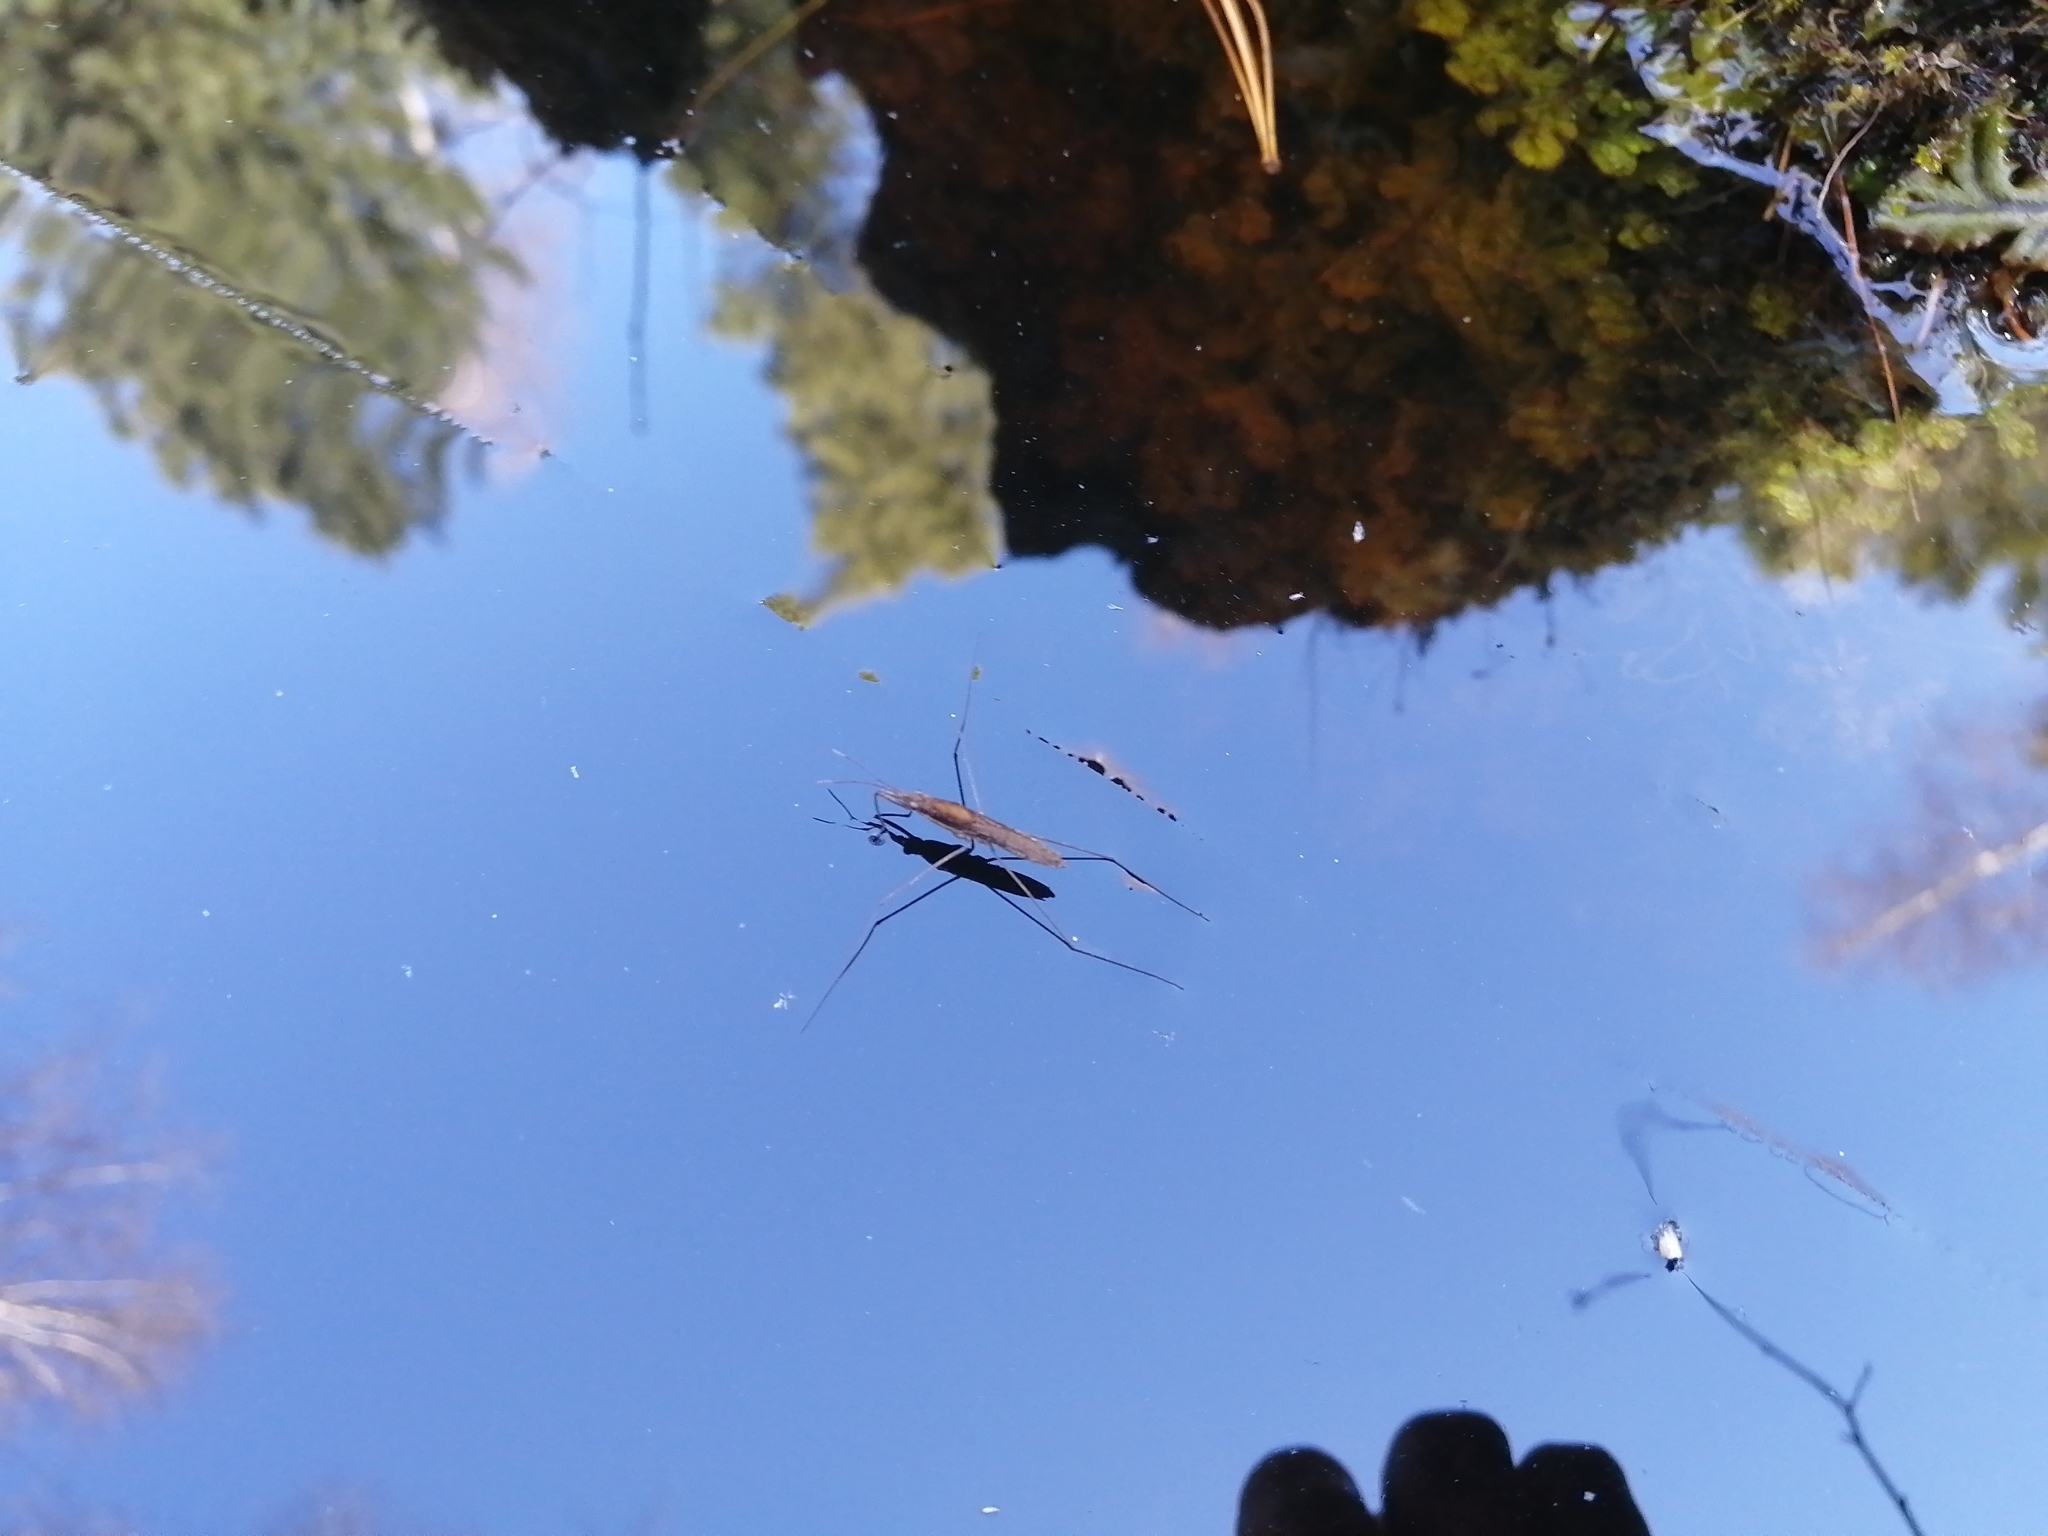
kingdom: Animalia
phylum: Arthropoda
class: Insecta
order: Hemiptera
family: Gerridae
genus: Limnoporus
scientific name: Limnoporus rufoscutellatus
